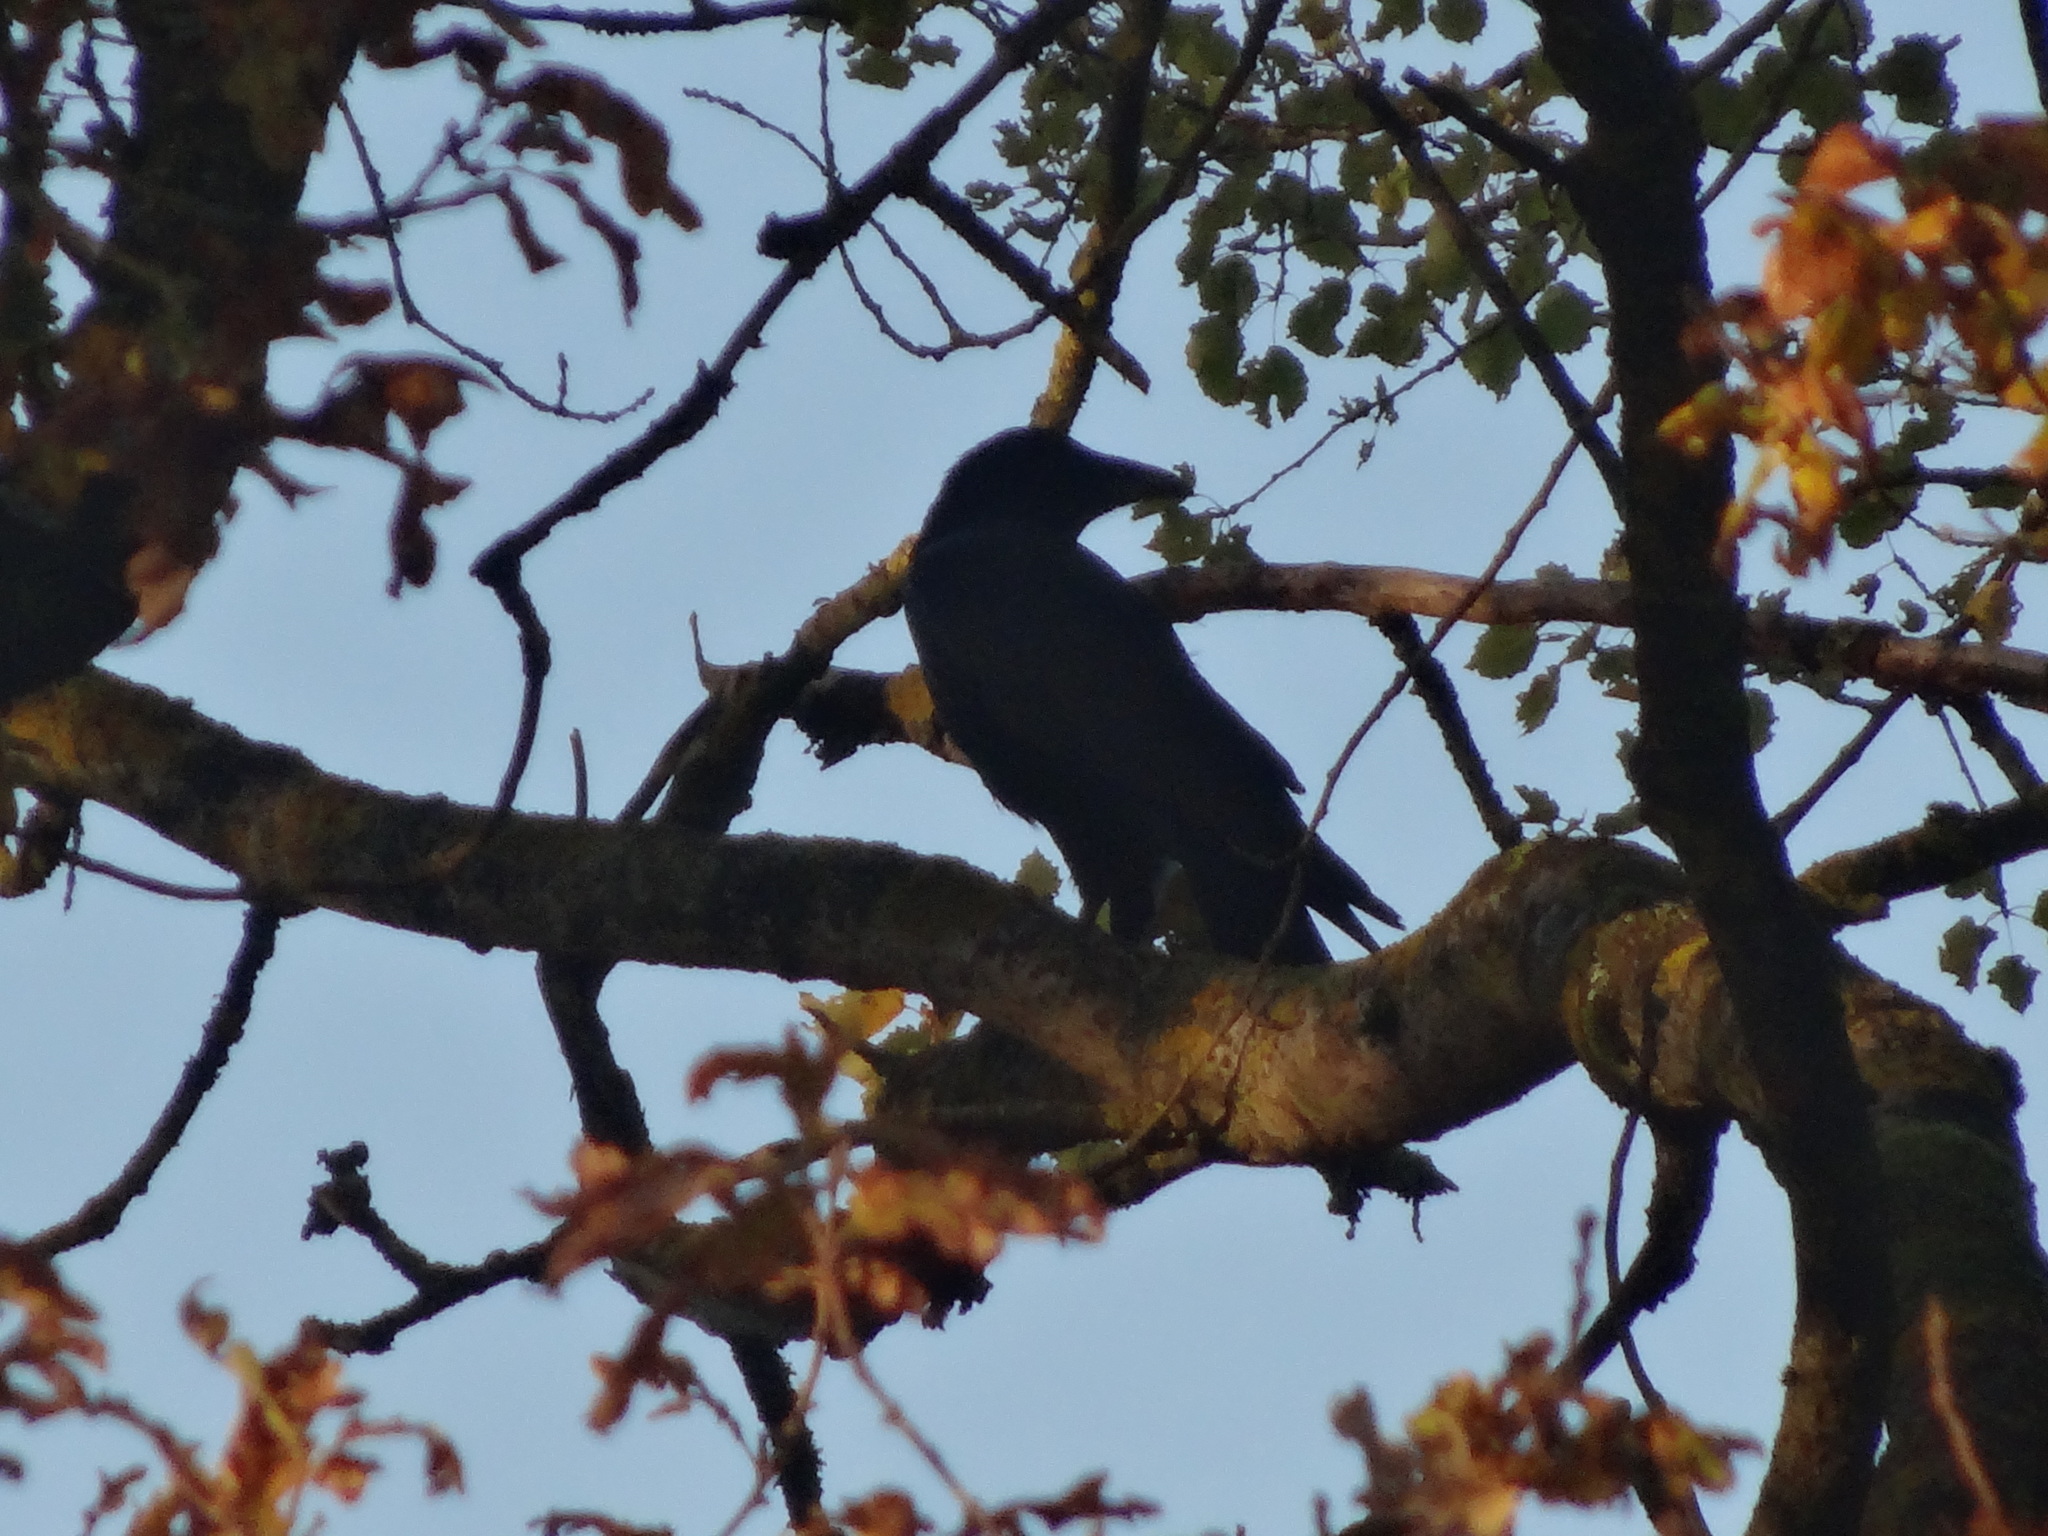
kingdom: Animalia
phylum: Chordata
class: Aves
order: Passeriformes
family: Corvidae
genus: Corvus
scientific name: Corvus corone
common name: Carrion crow
